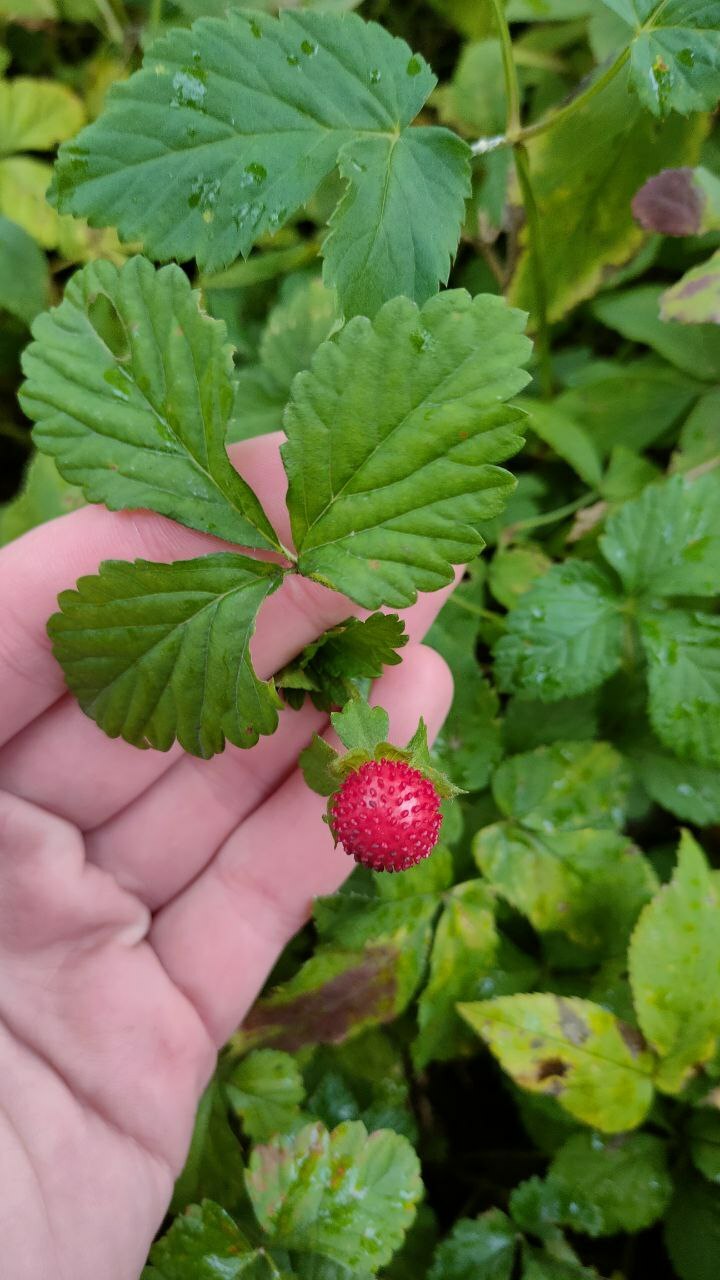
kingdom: Plantae
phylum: Tracheophyta
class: Magnoliopsida
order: Rosales
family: Rosaceae
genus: Potentilla
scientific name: Potentilla indica
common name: Yellow-flowered strawberry
